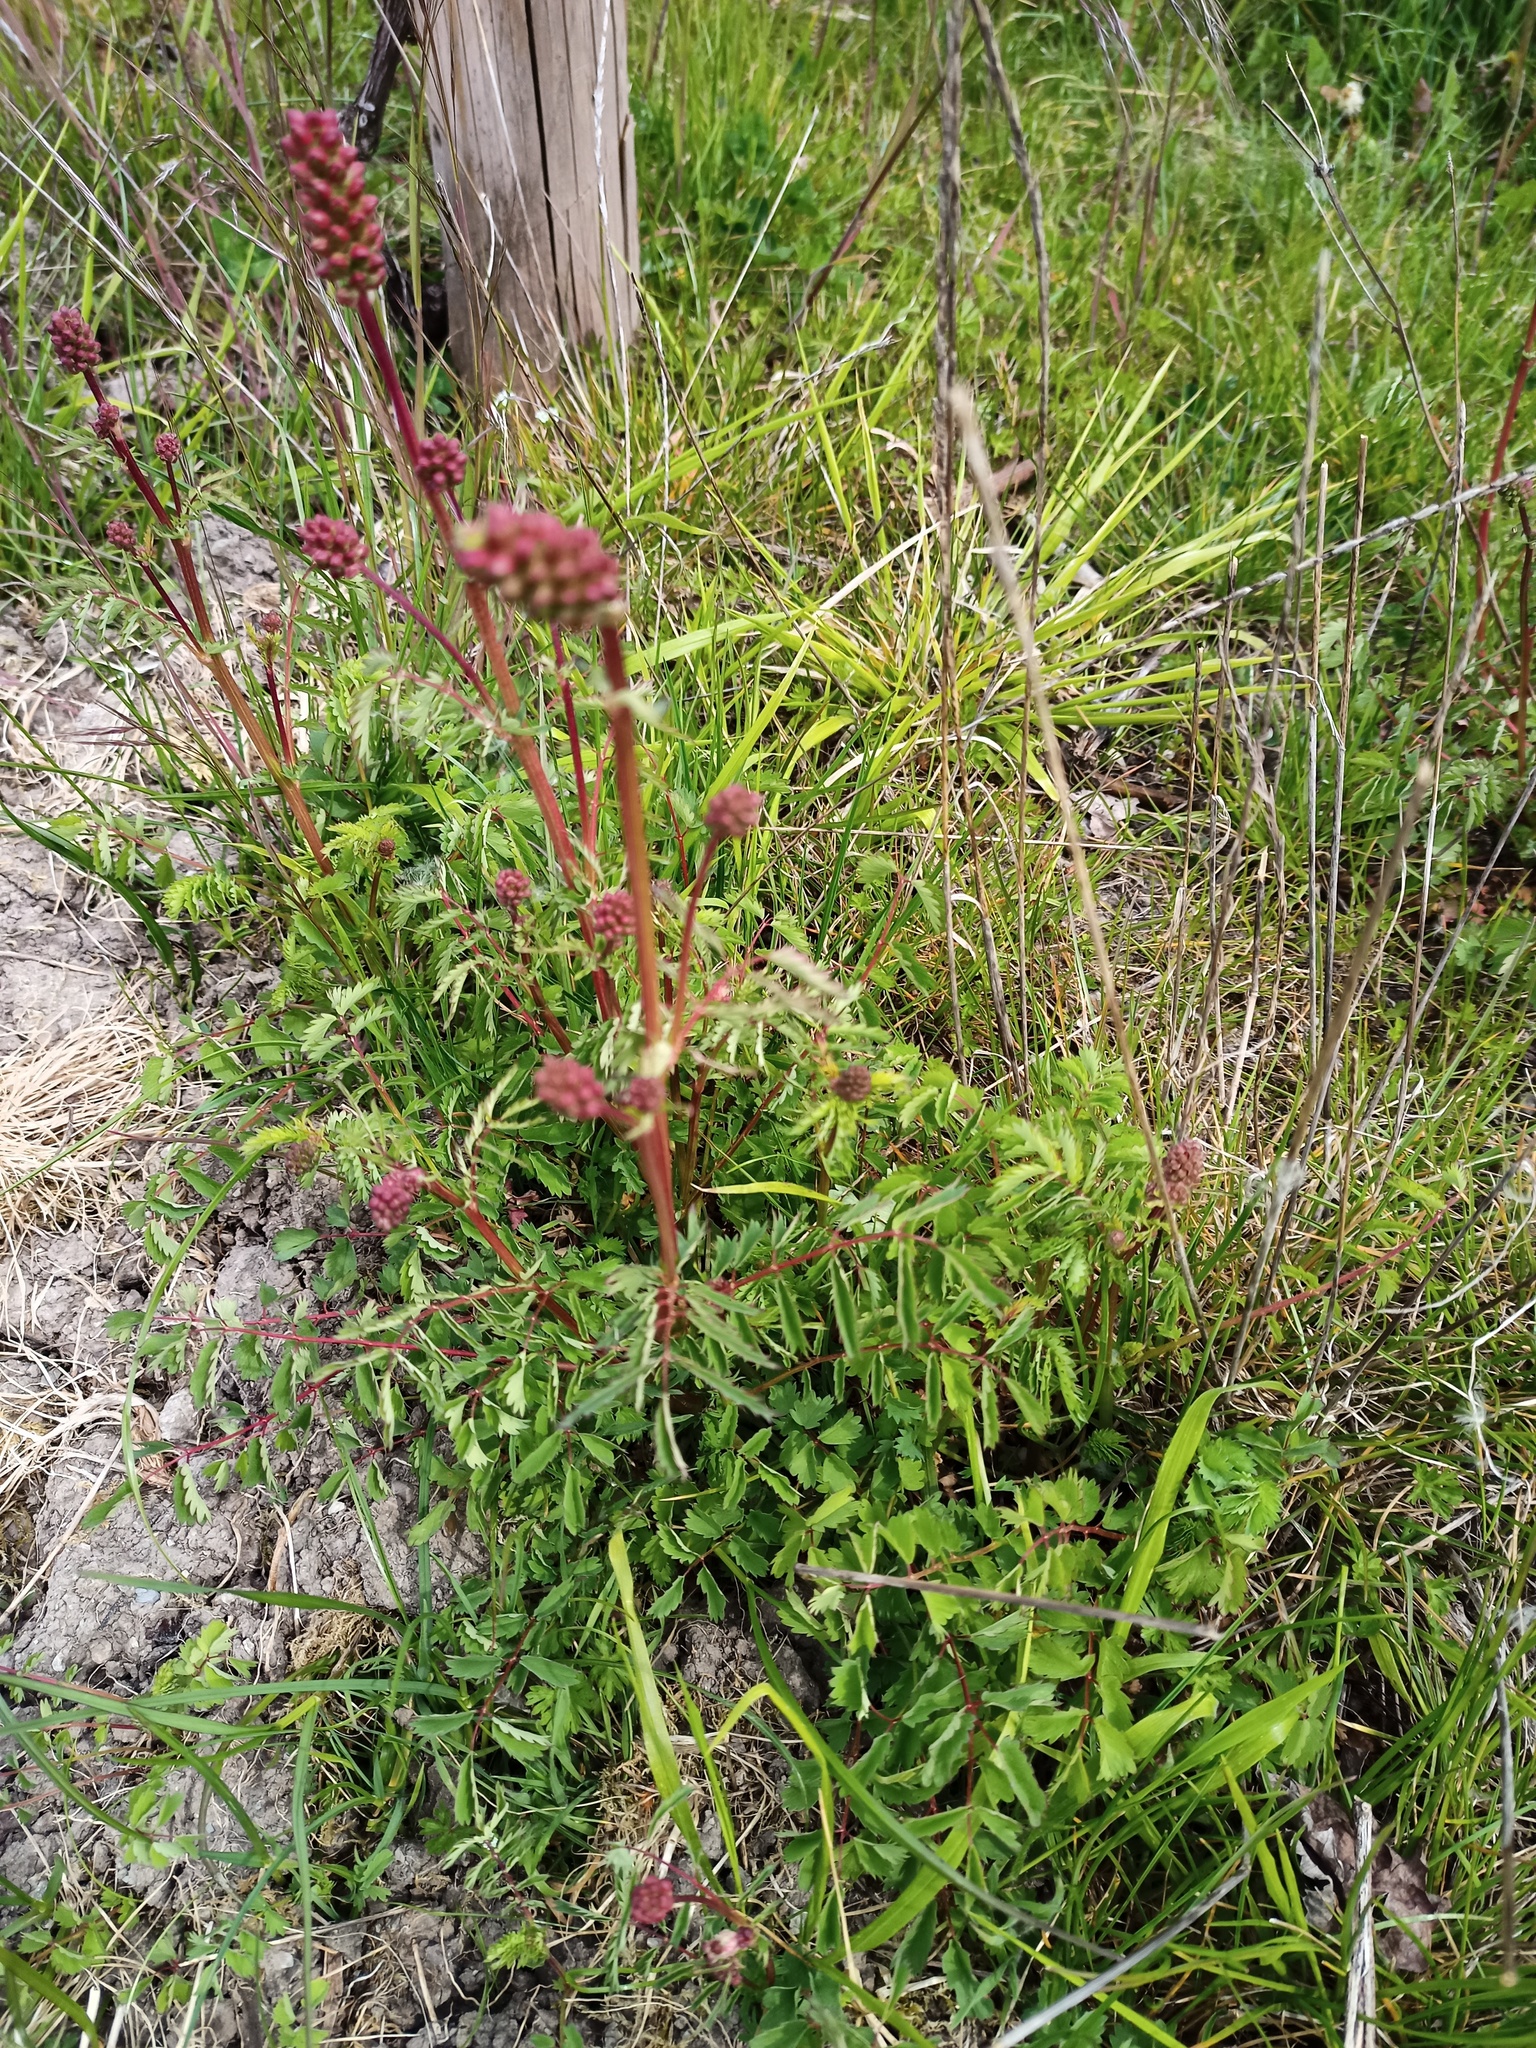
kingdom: Plantae
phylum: Tracheophyta
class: Magnoliopsida
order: Rosales
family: Rosaceae
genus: Poterium
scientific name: Poterium sanguisorba
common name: Salad burnet
